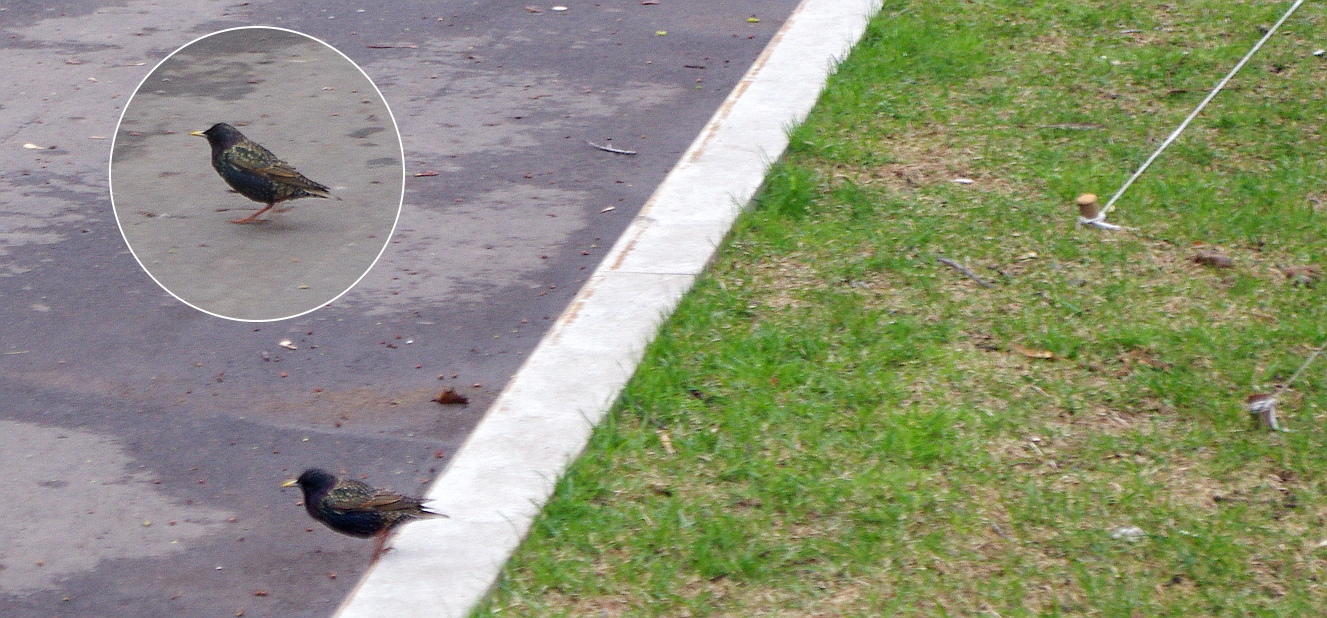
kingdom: Animalia
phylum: Chordata
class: Aves
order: Passeriformes
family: Sturnidae
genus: Sturnus
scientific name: Sturnus vulgaris
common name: Common starling
